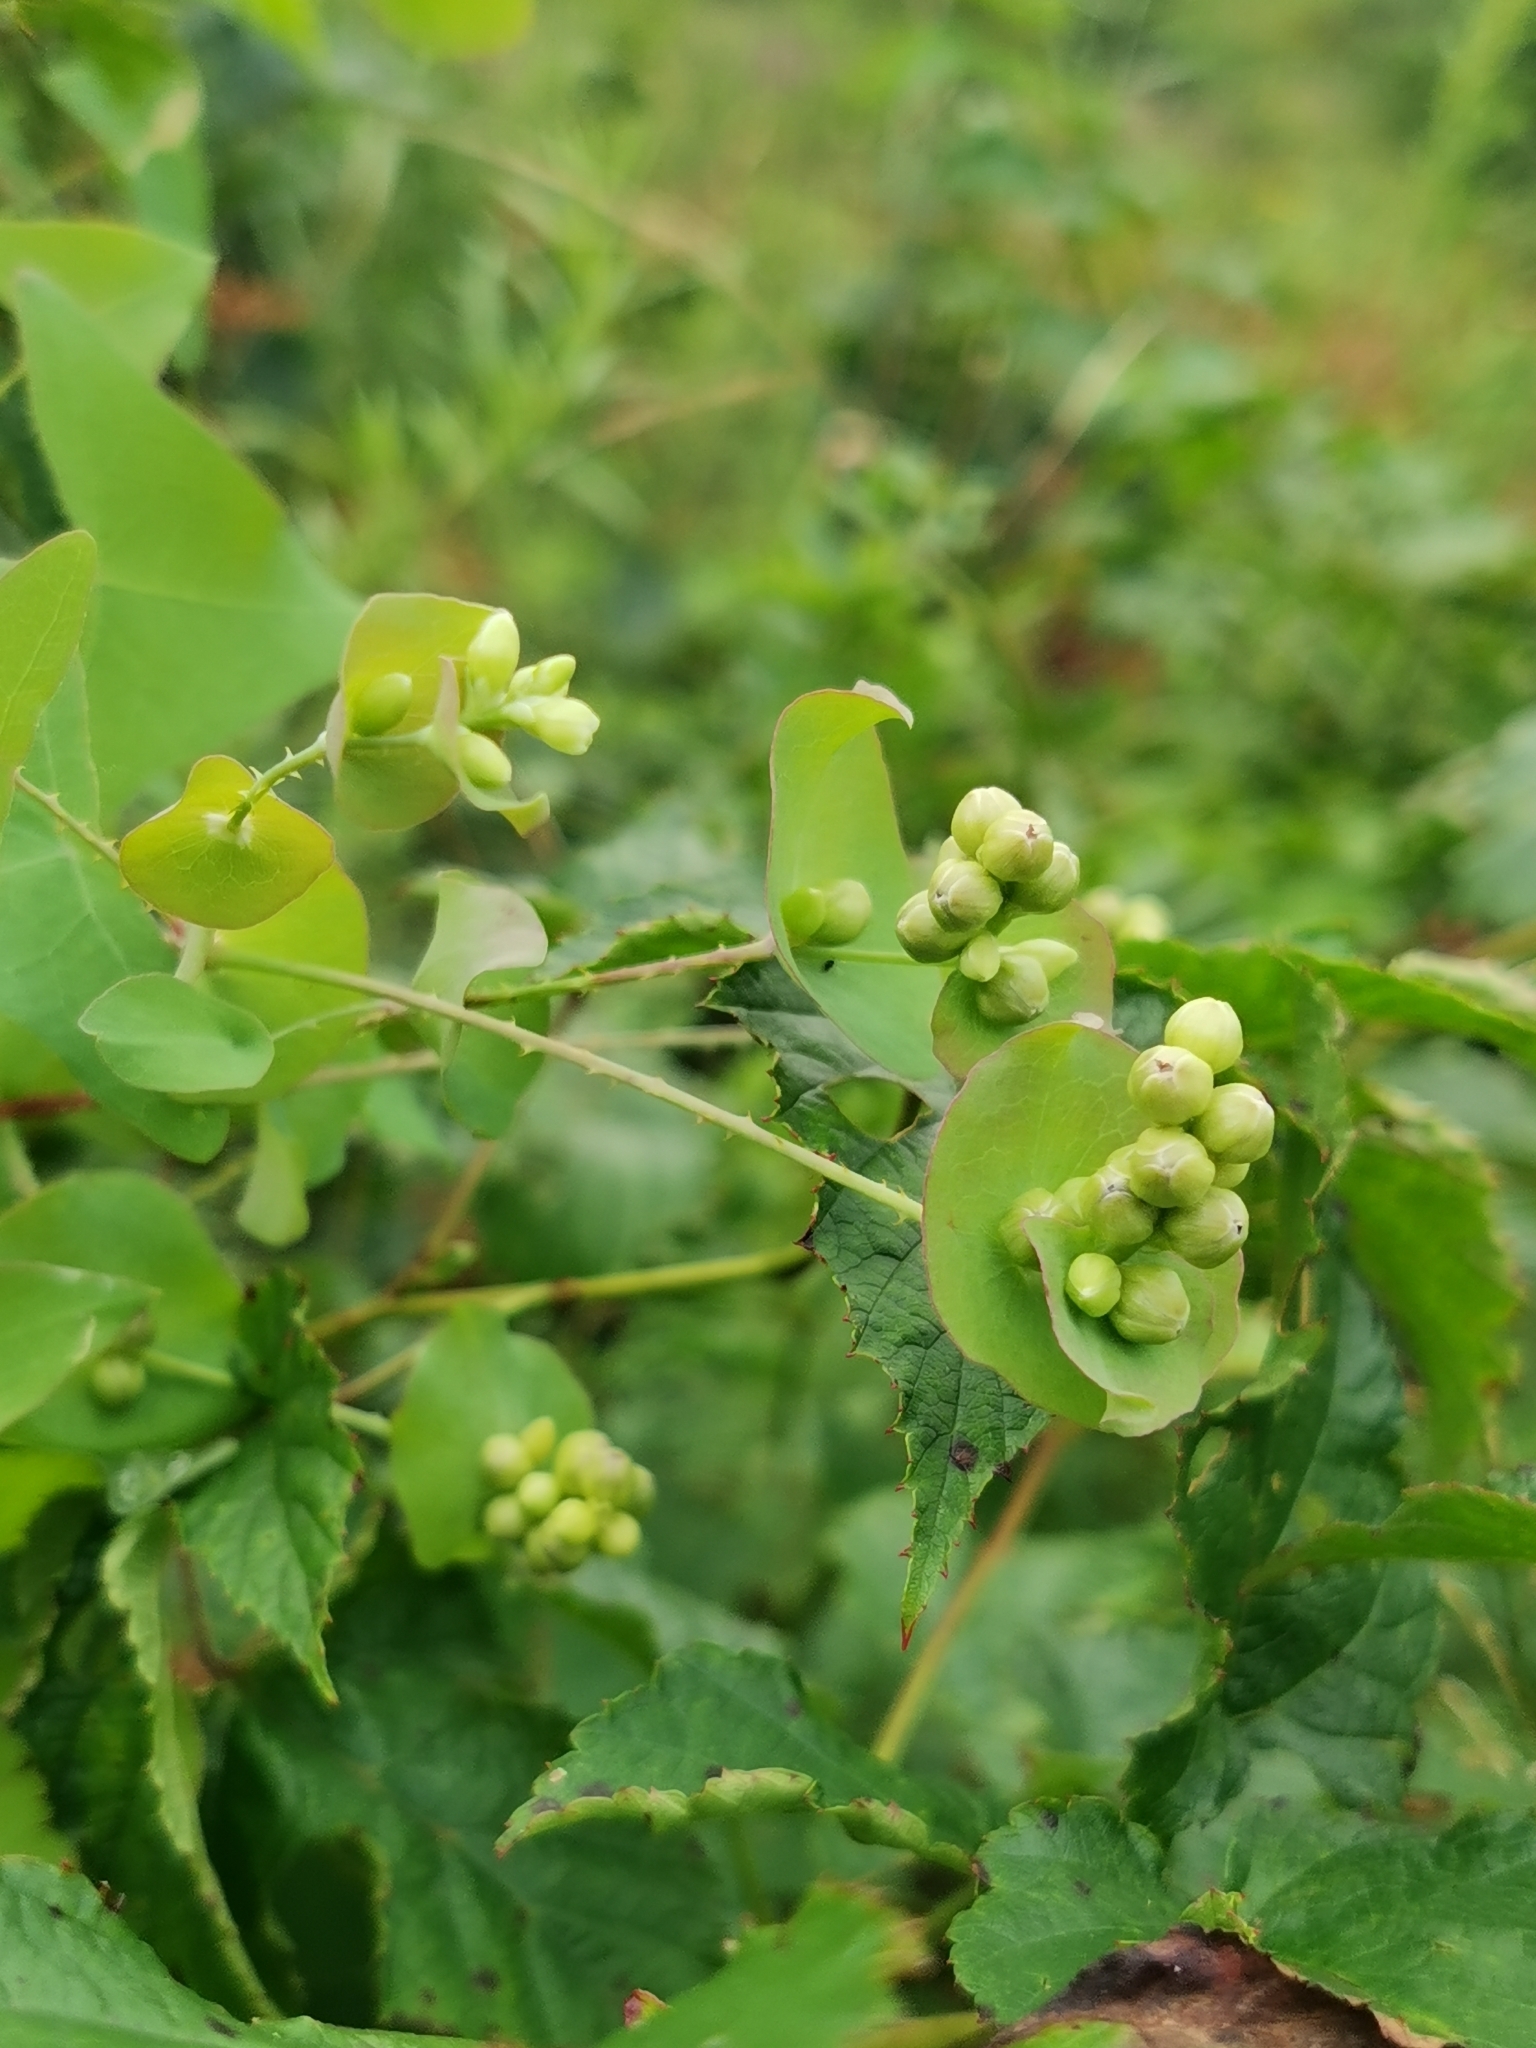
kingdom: Plantae
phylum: Tracheophyta
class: Magnoliopsida
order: Caryophyllales
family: Polygonaceae
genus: Persicaria
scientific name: Persicaria perfoliata
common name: Asiatic tearthumb
